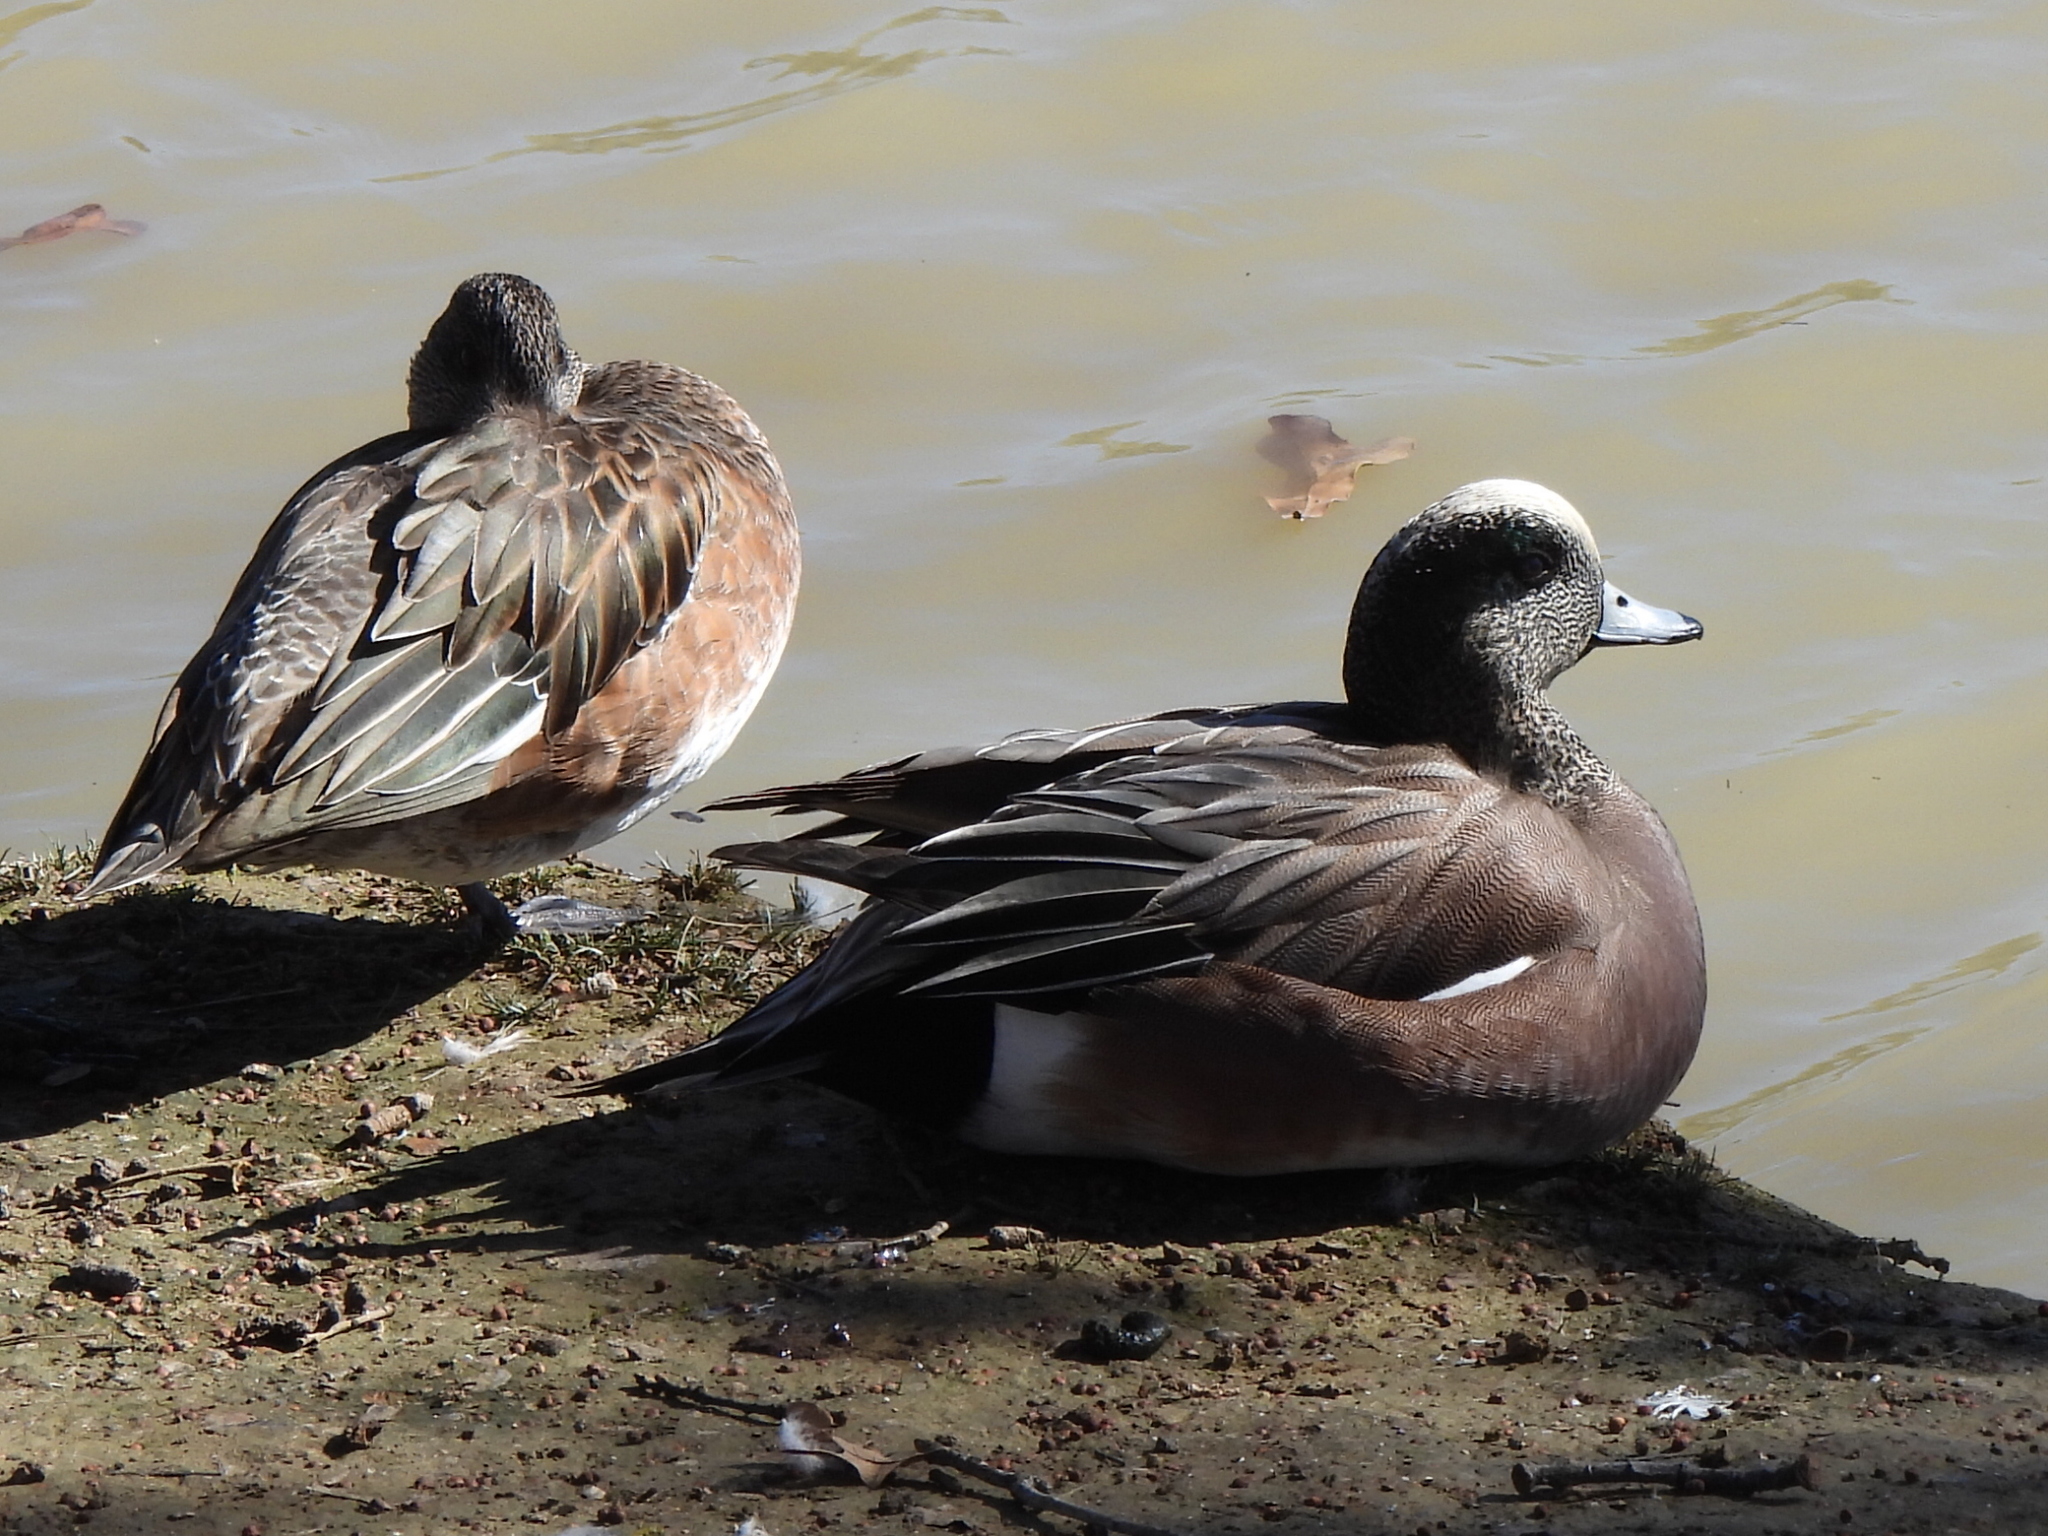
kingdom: Animalia
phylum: Chordata
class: Aves
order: Anseriformes
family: Anatidae
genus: Mareca
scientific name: Mareca americana
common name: American wigeon
